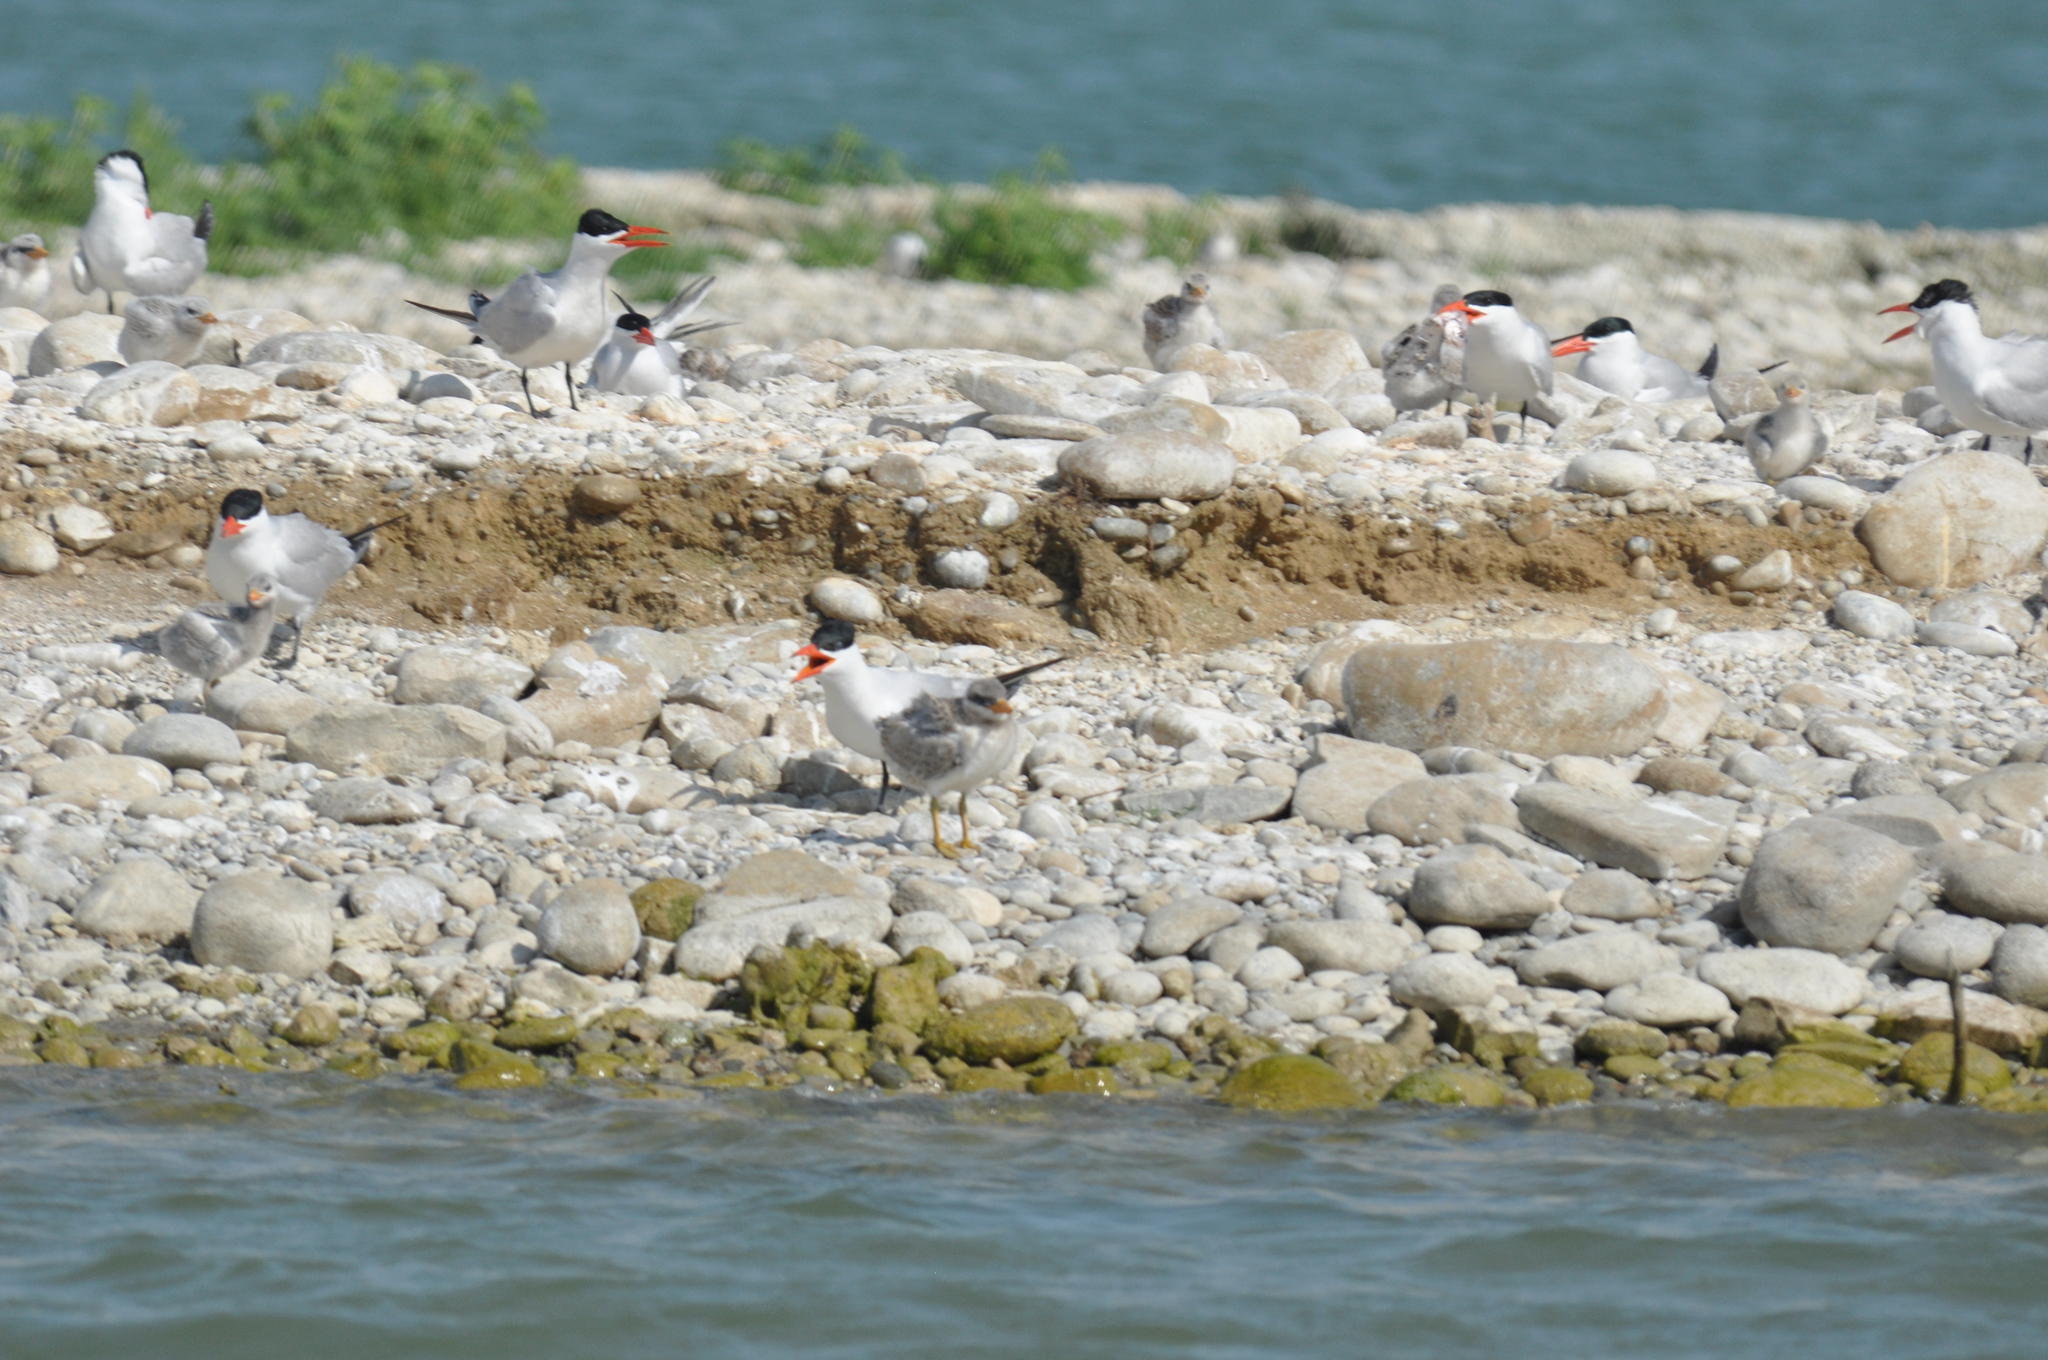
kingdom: Animalia
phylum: Chordata
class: Aves
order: Charadriiformes
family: Laridae
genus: Hydroprogne
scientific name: Hydroprogne caspia
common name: Caspian tern
